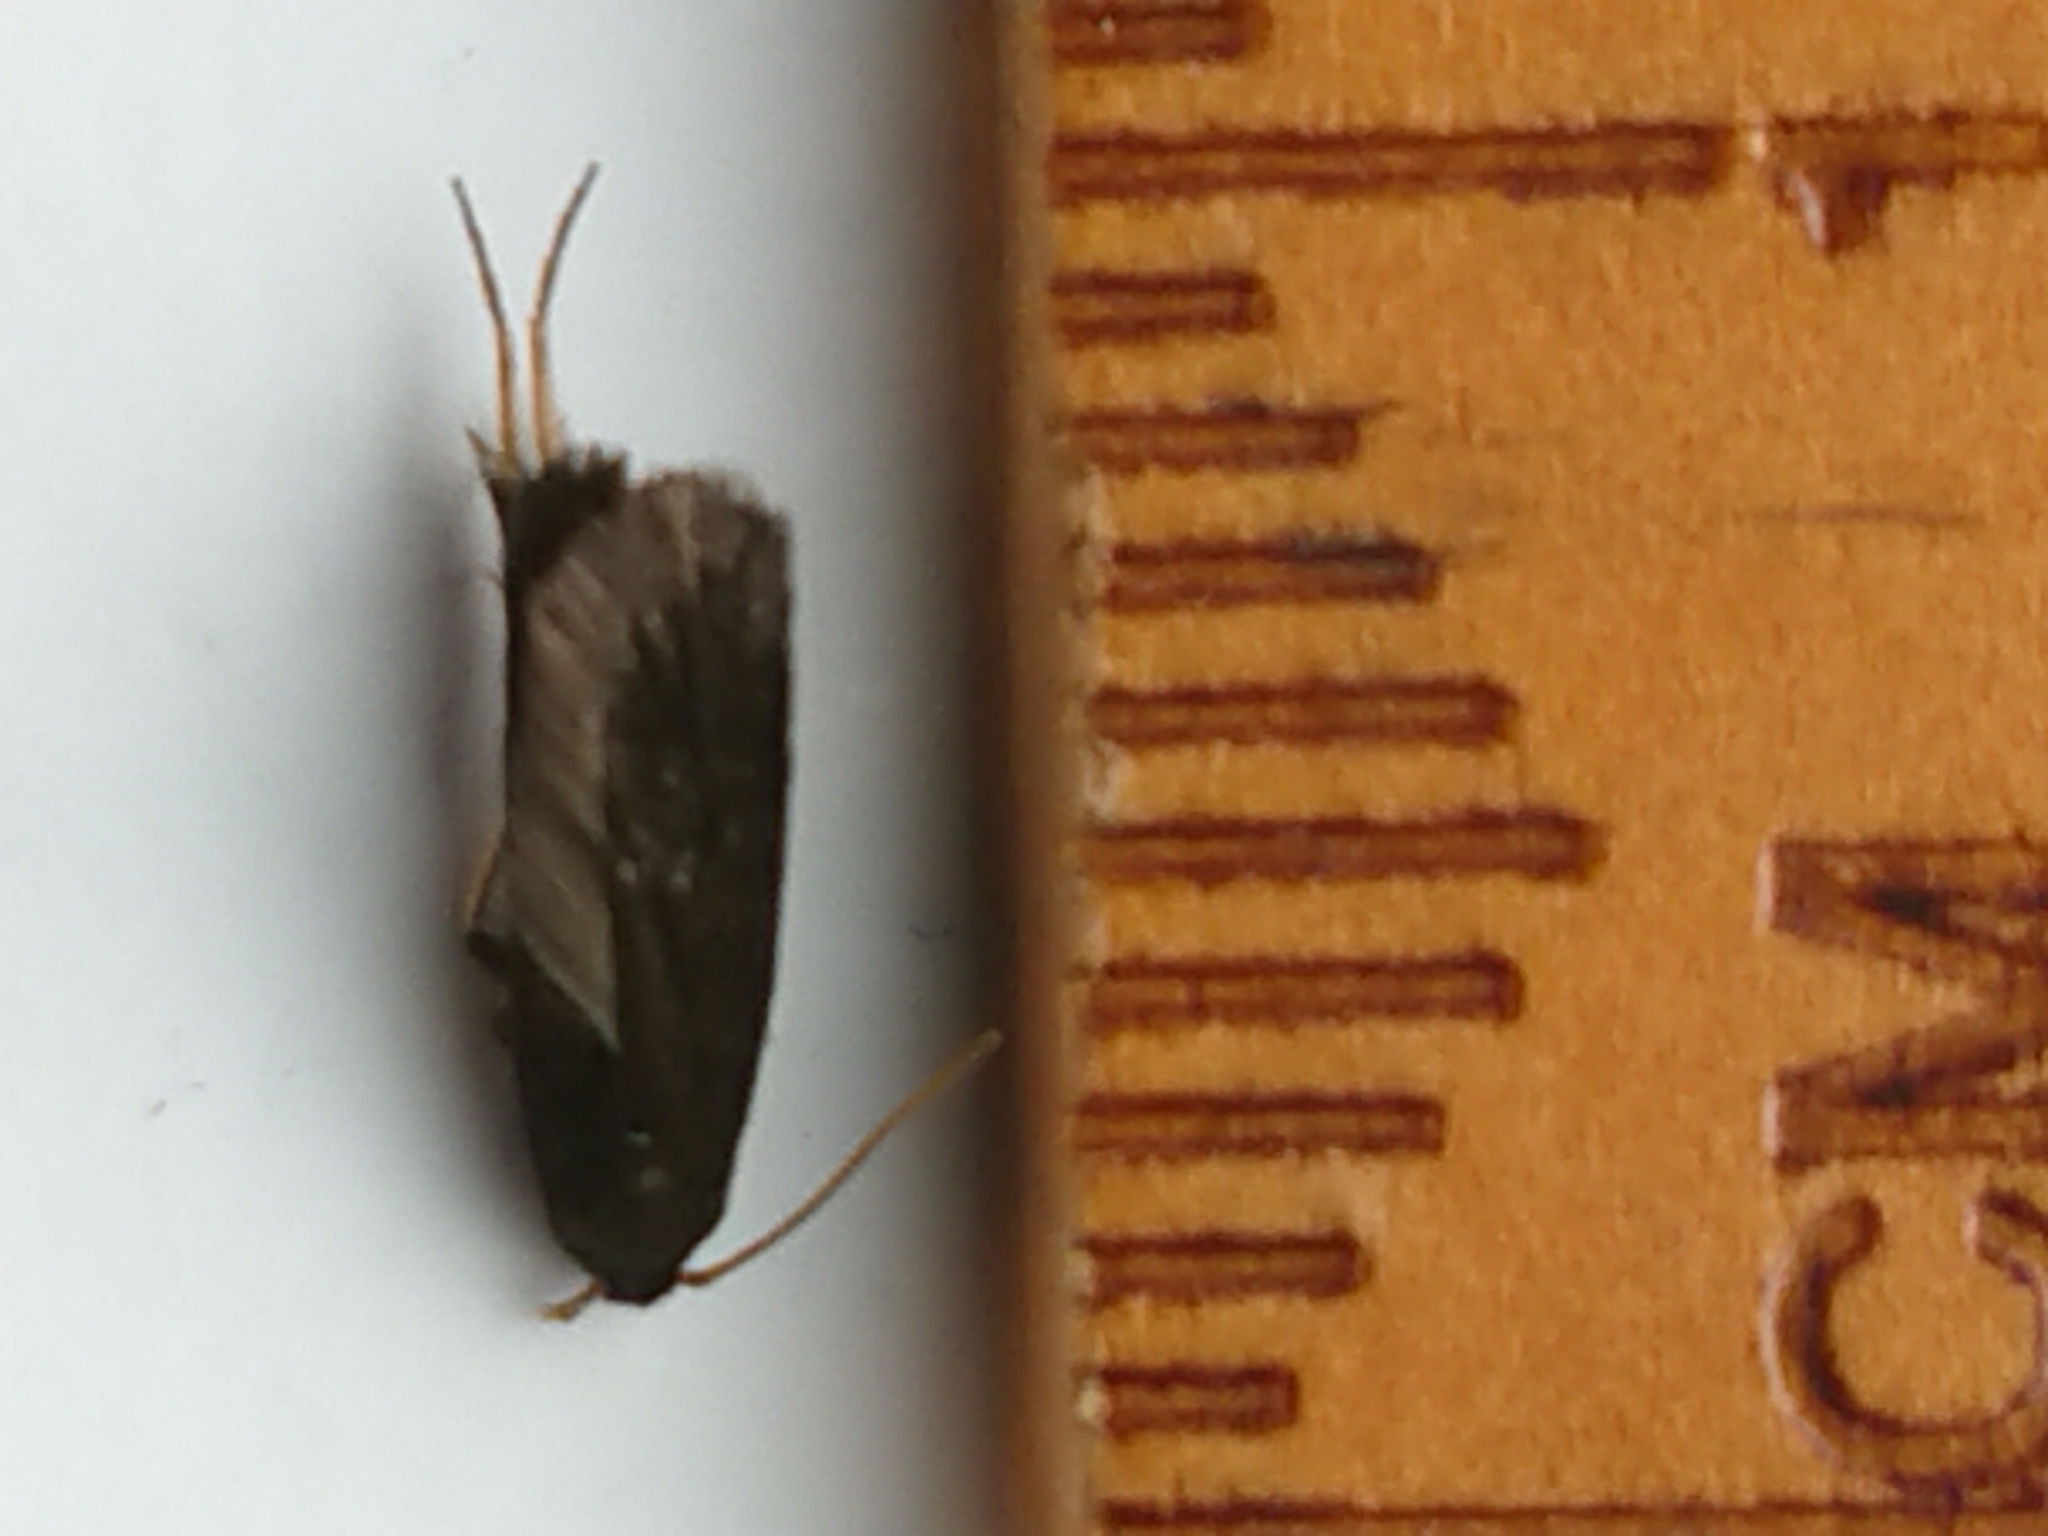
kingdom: Animalia
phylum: Arthropoda
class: Insecta
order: Lepidoptera
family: Lecithoceridae
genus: Lecithocera
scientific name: Lecithocera micromela
